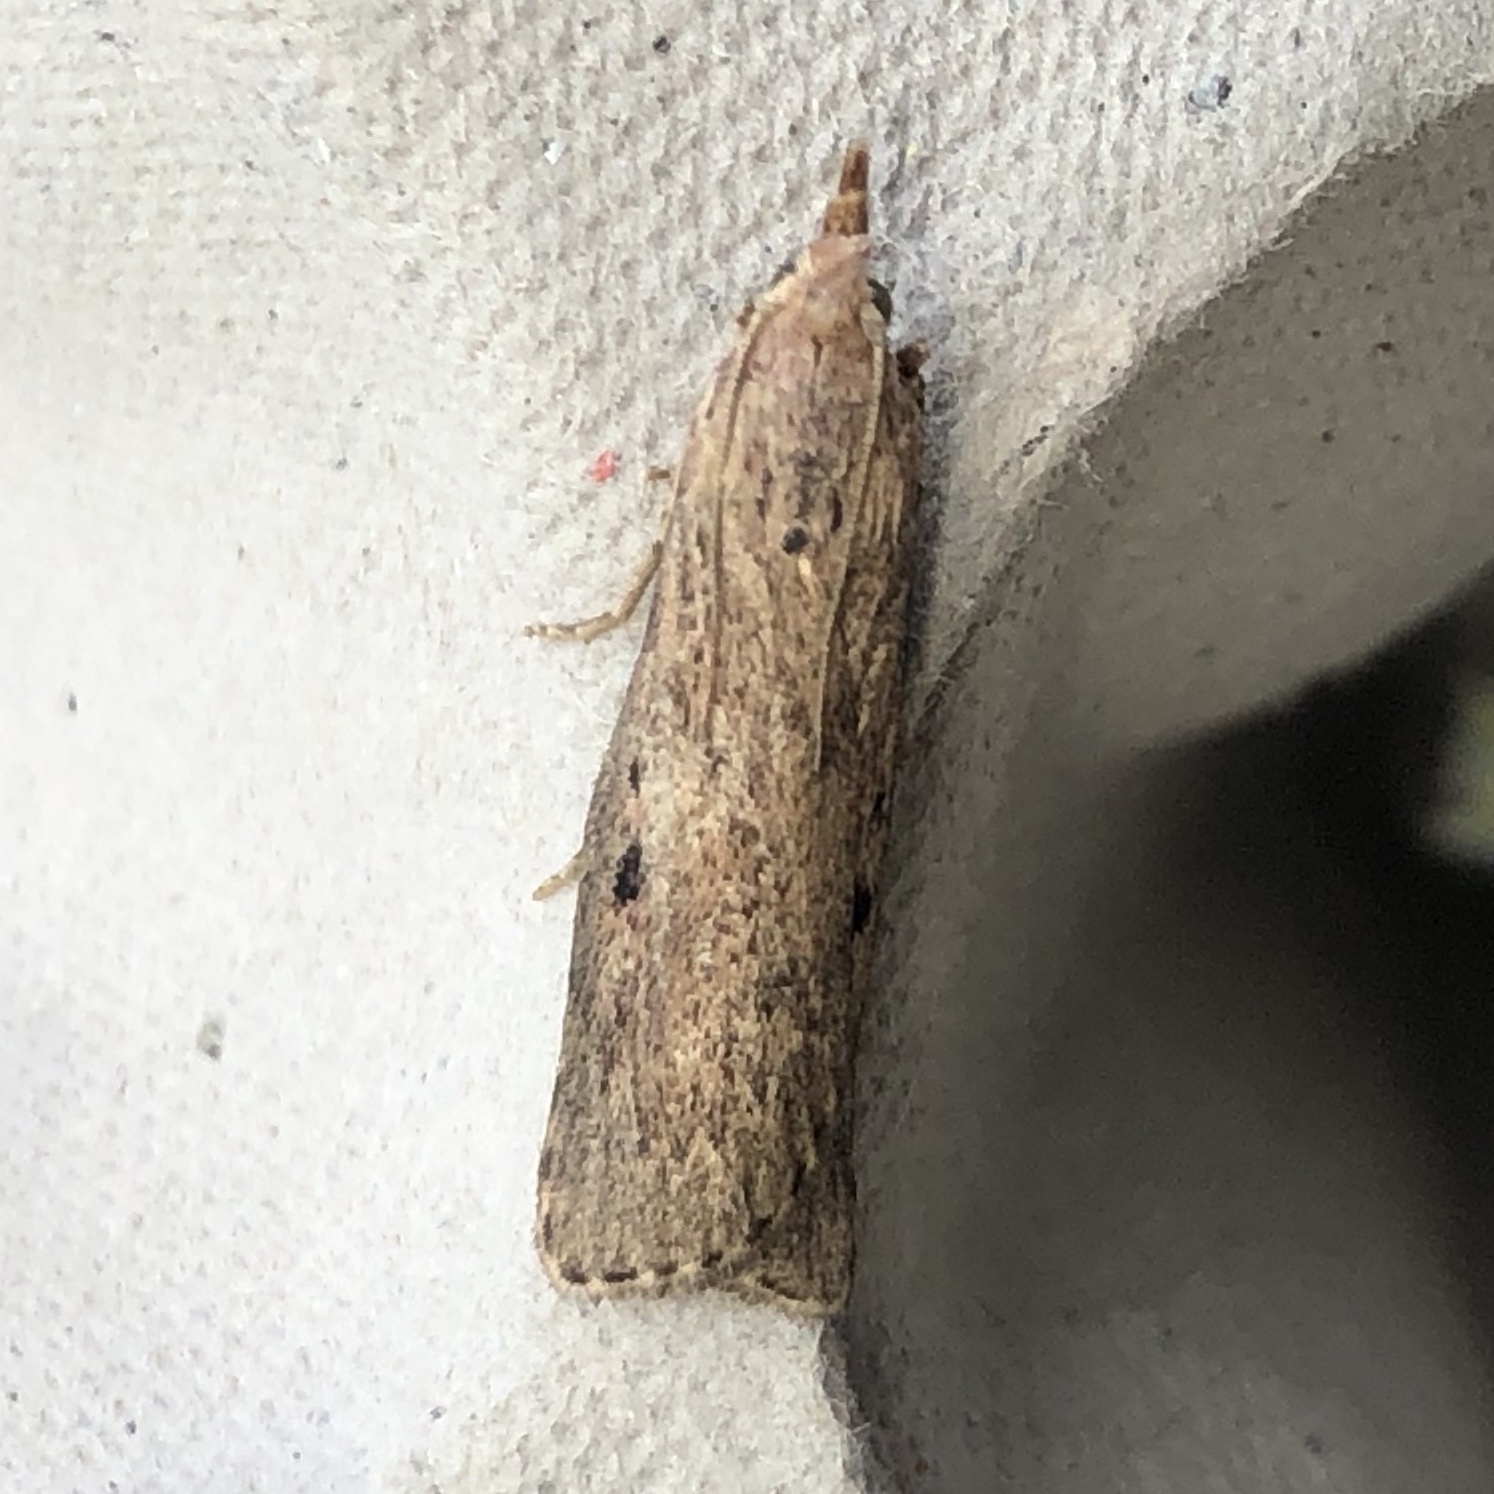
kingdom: Animalia
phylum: Arthropoda
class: Insecta
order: Lepidoptera
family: Pyralidae
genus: Aphomia
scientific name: Aphomia sociella
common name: Bee moth
